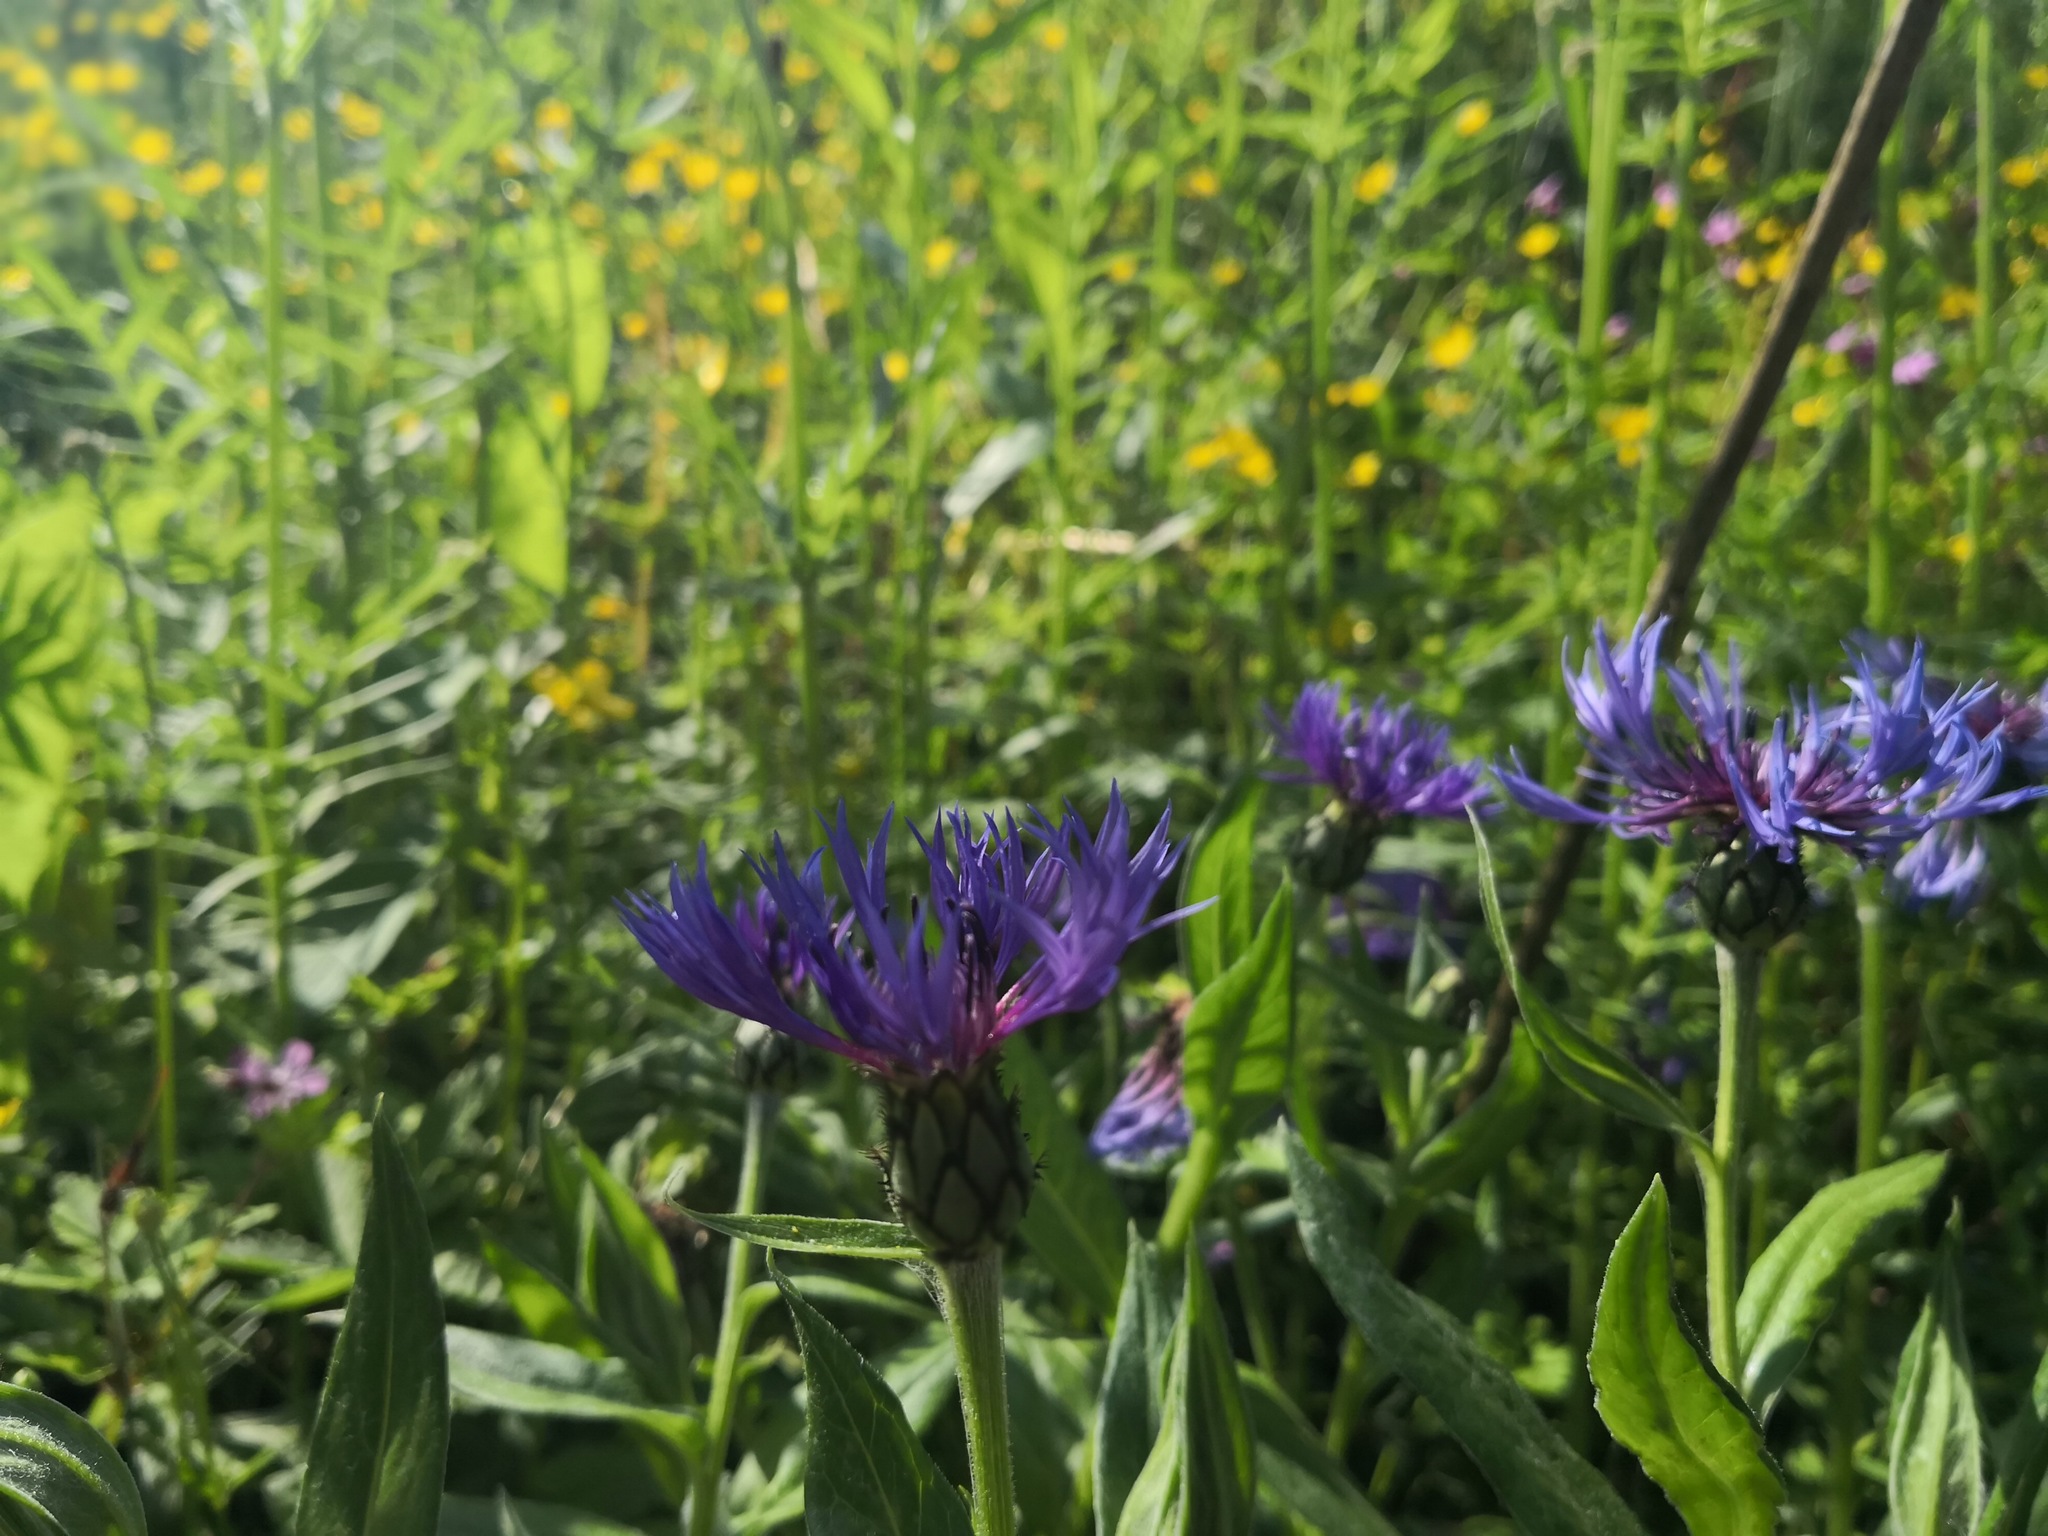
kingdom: Plantae
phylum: Tracheophyta
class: Magnoliopsida
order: Asterales
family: Asteraceae
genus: Centaurea
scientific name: Centaurea montana
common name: Perennial cornflower
